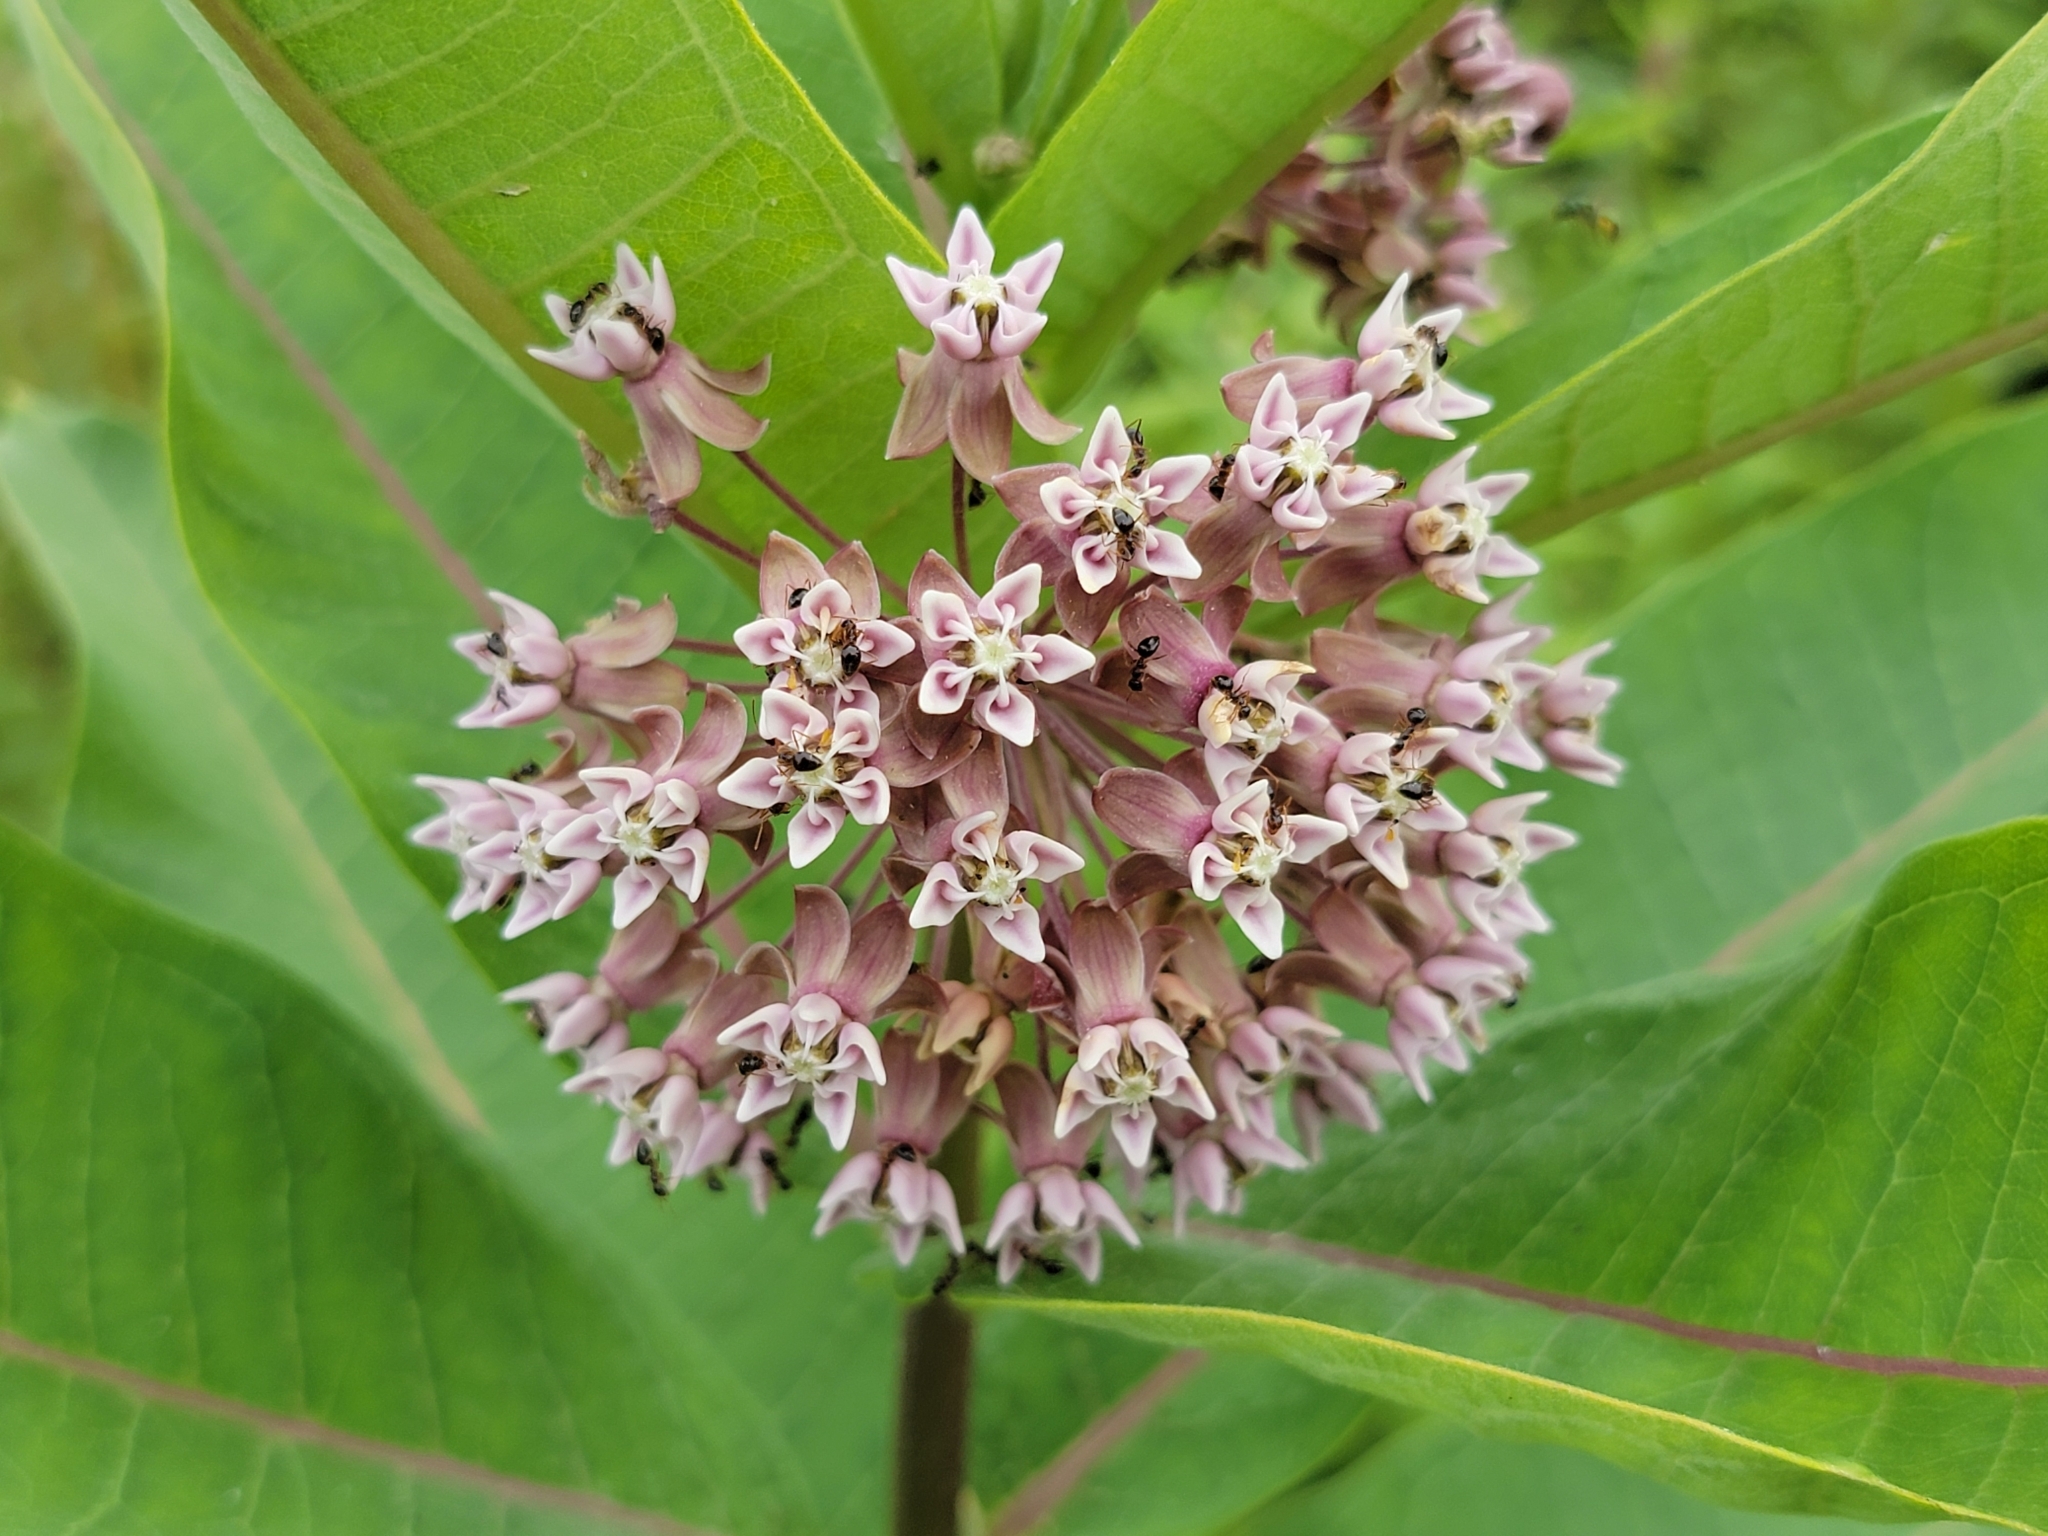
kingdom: Plantae
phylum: Tracheophyta
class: Magnoliopsida
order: Gentianales
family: Apocynaceae
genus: Asclepias
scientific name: Asclepias syriaca
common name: Common milkweed
